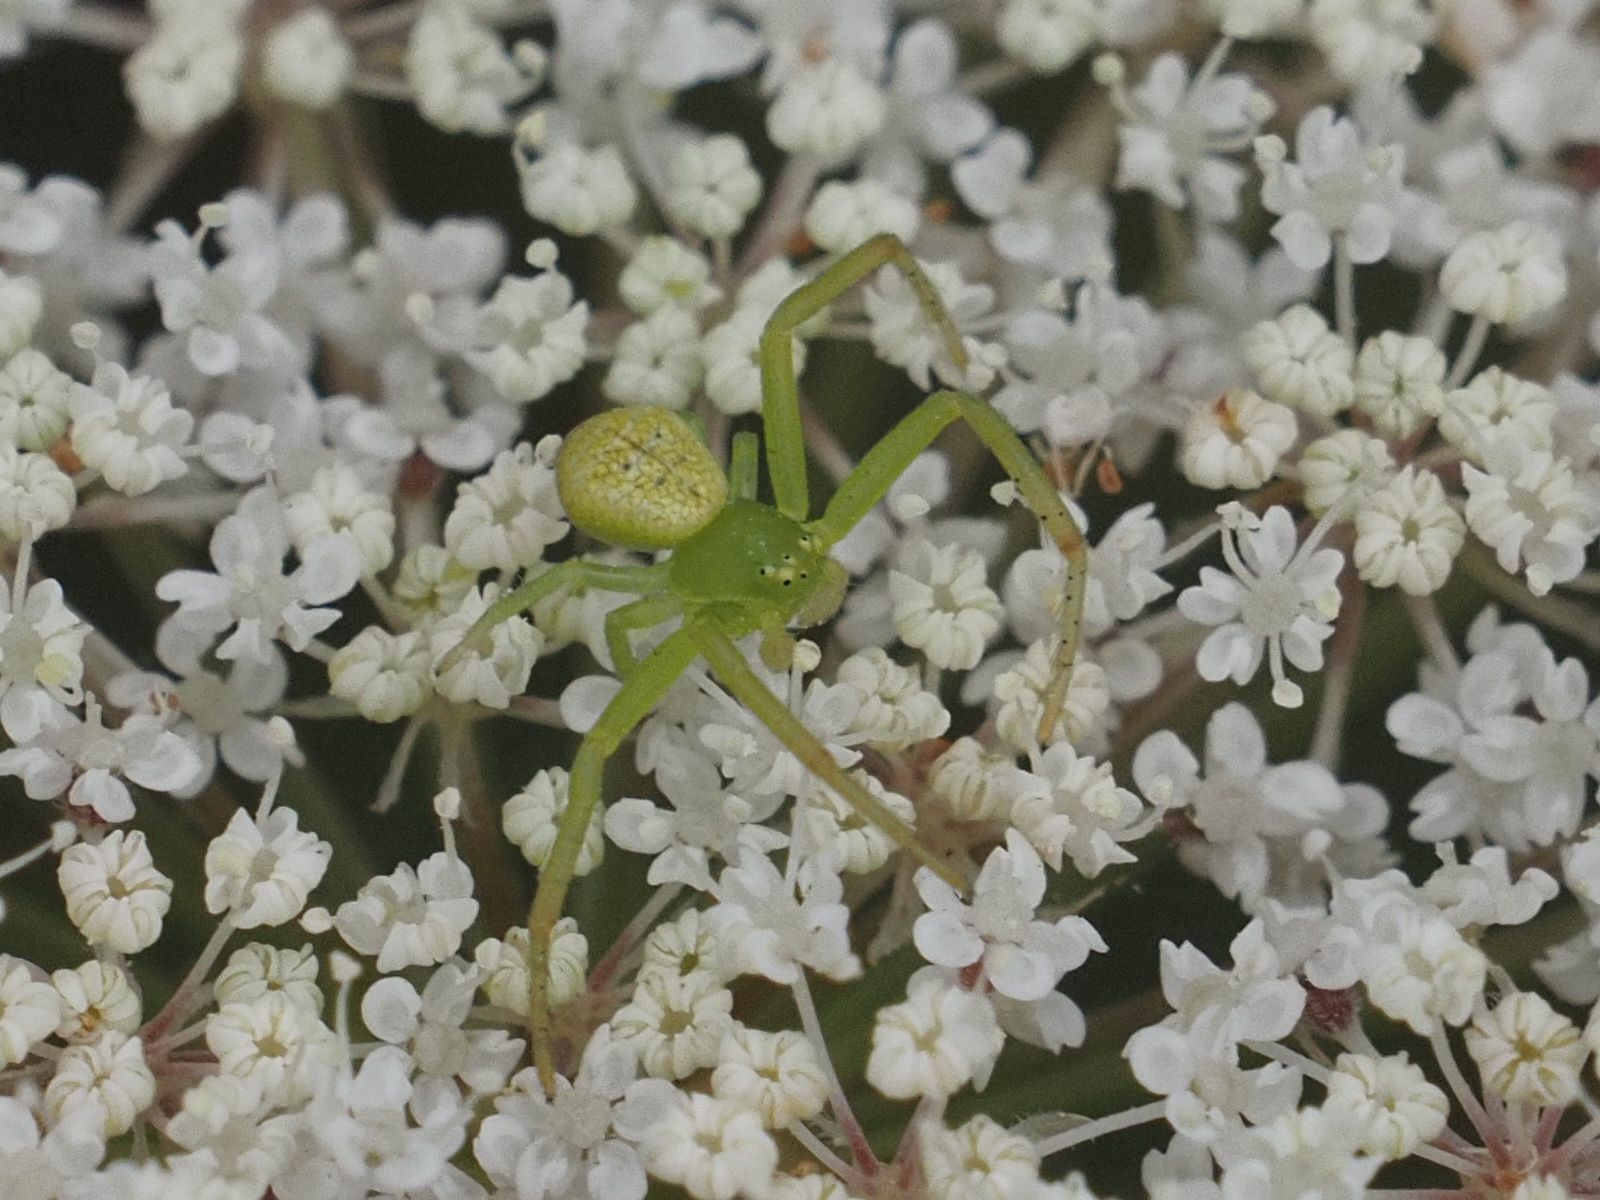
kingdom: Animalia
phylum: Arthropoda
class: Arachnida
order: Araneae
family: Thomisidae
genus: Ebrechtella
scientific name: Ebrechtella tricuspidata
